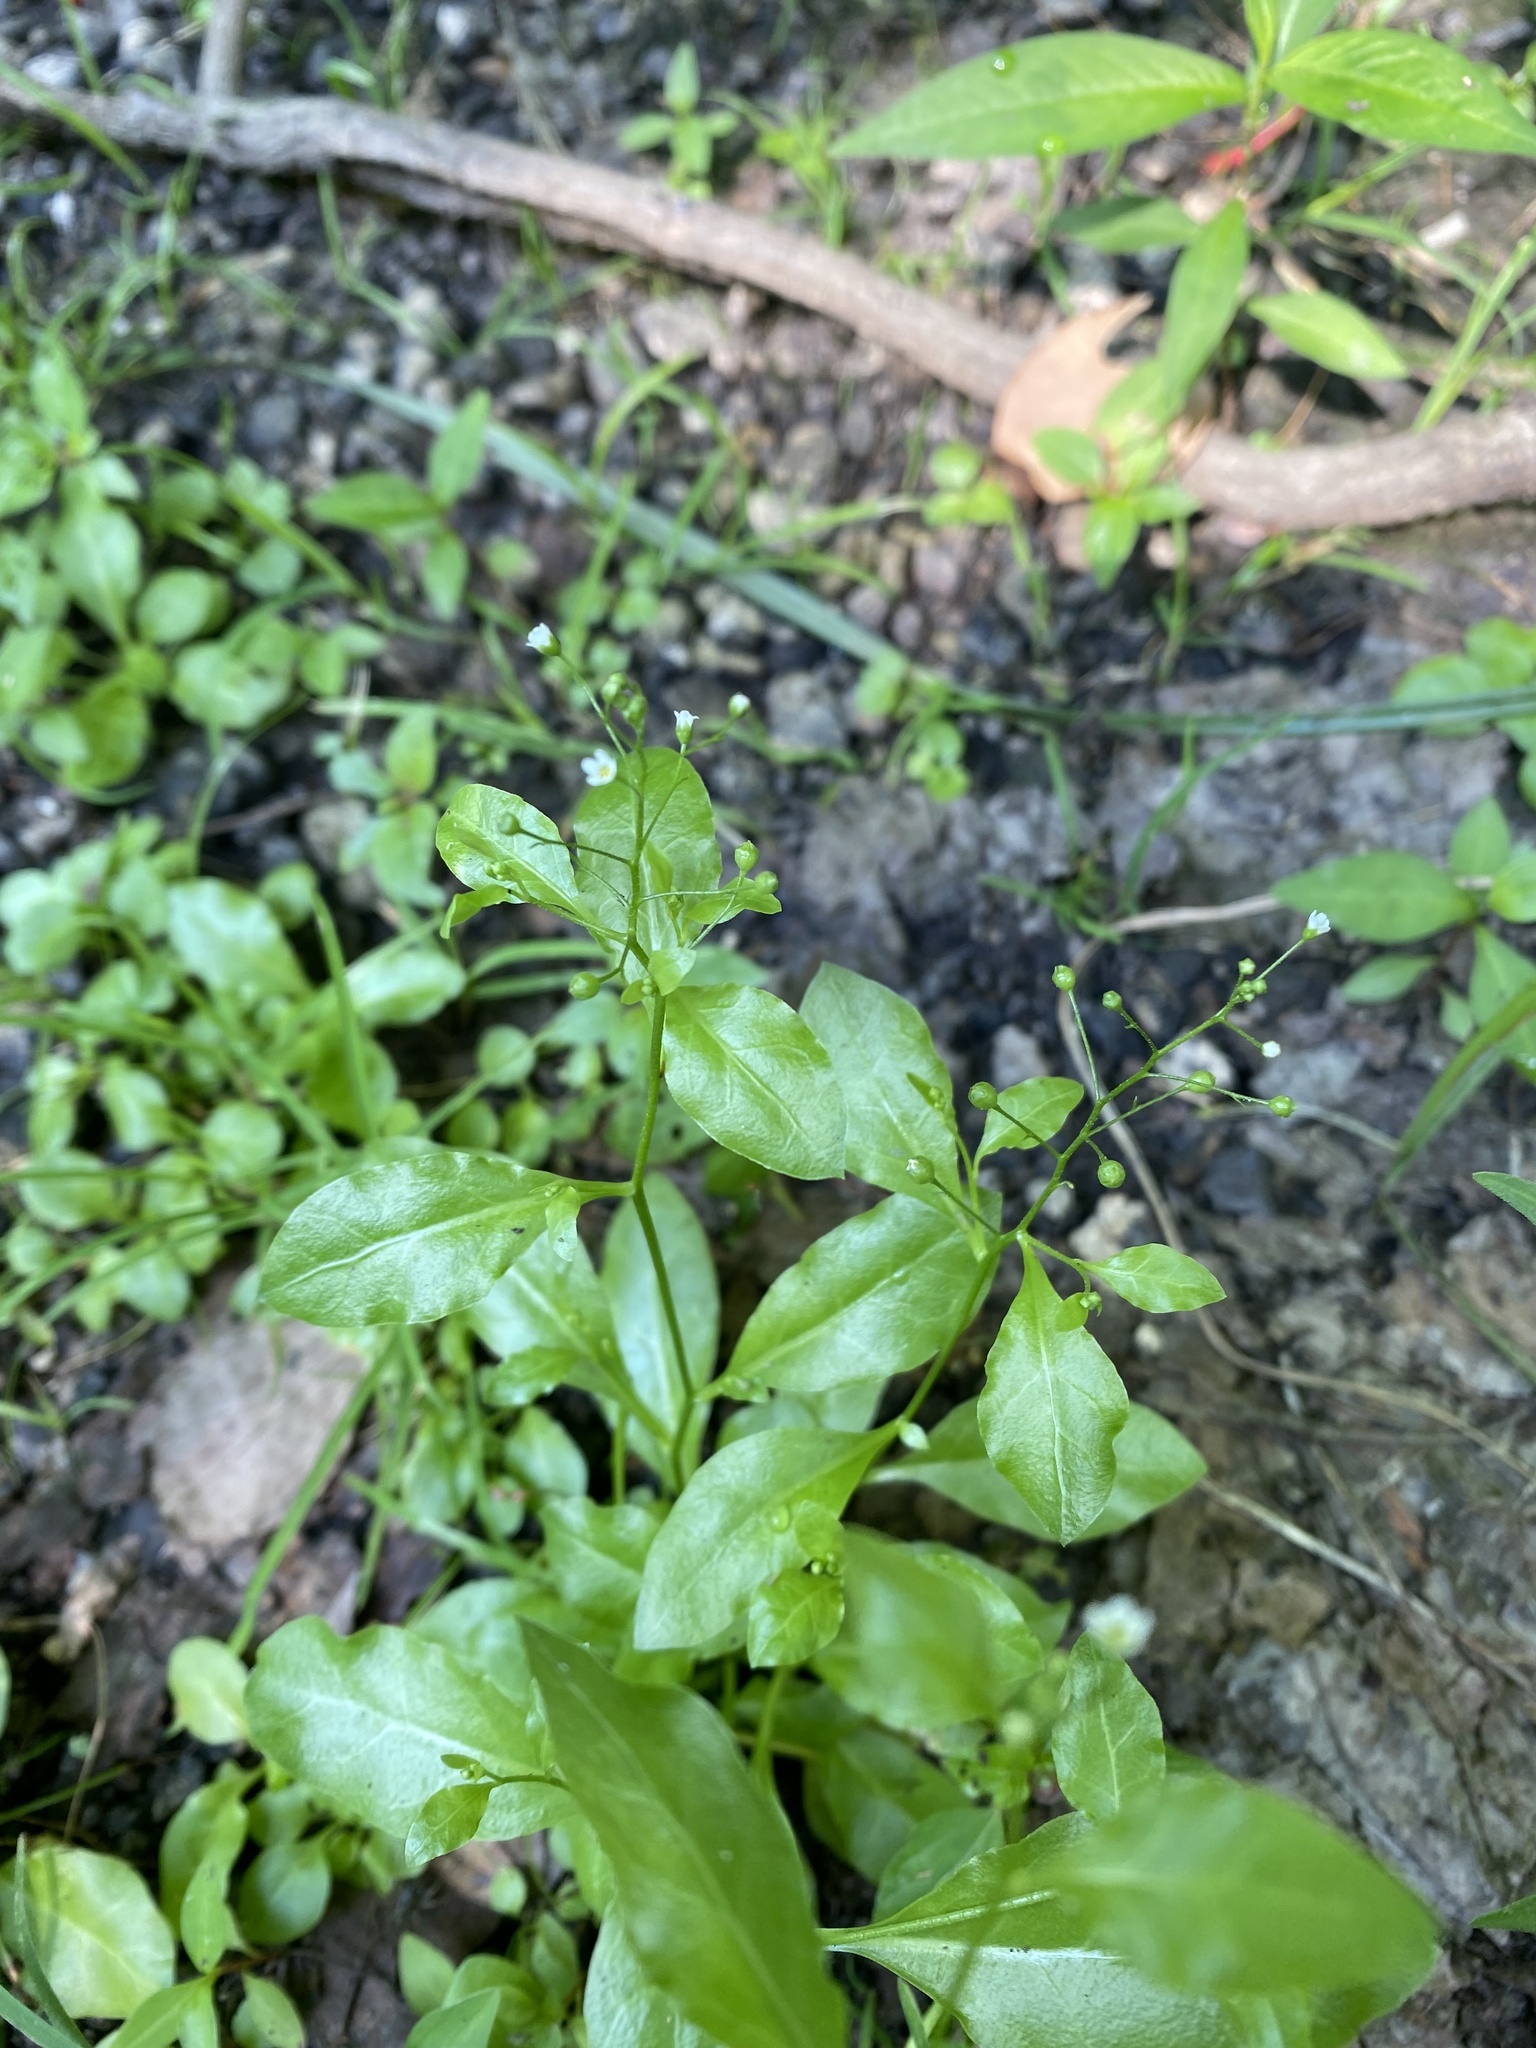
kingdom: Plantae
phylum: Tracheophyta
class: Magnoliopsida
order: Ericales
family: Primulaceae
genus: Samolus
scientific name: Samolus parviflorus
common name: False water pimpernel
